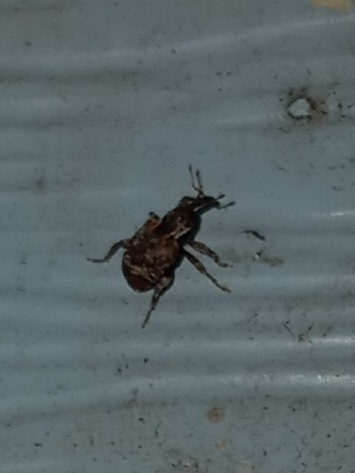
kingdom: Animalia
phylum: Arthropoda
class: Insecta
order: Coleoptera
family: Curculionidae
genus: Conotrachelus
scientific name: Conotrachelus anaglypticus
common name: Cambium curculio
